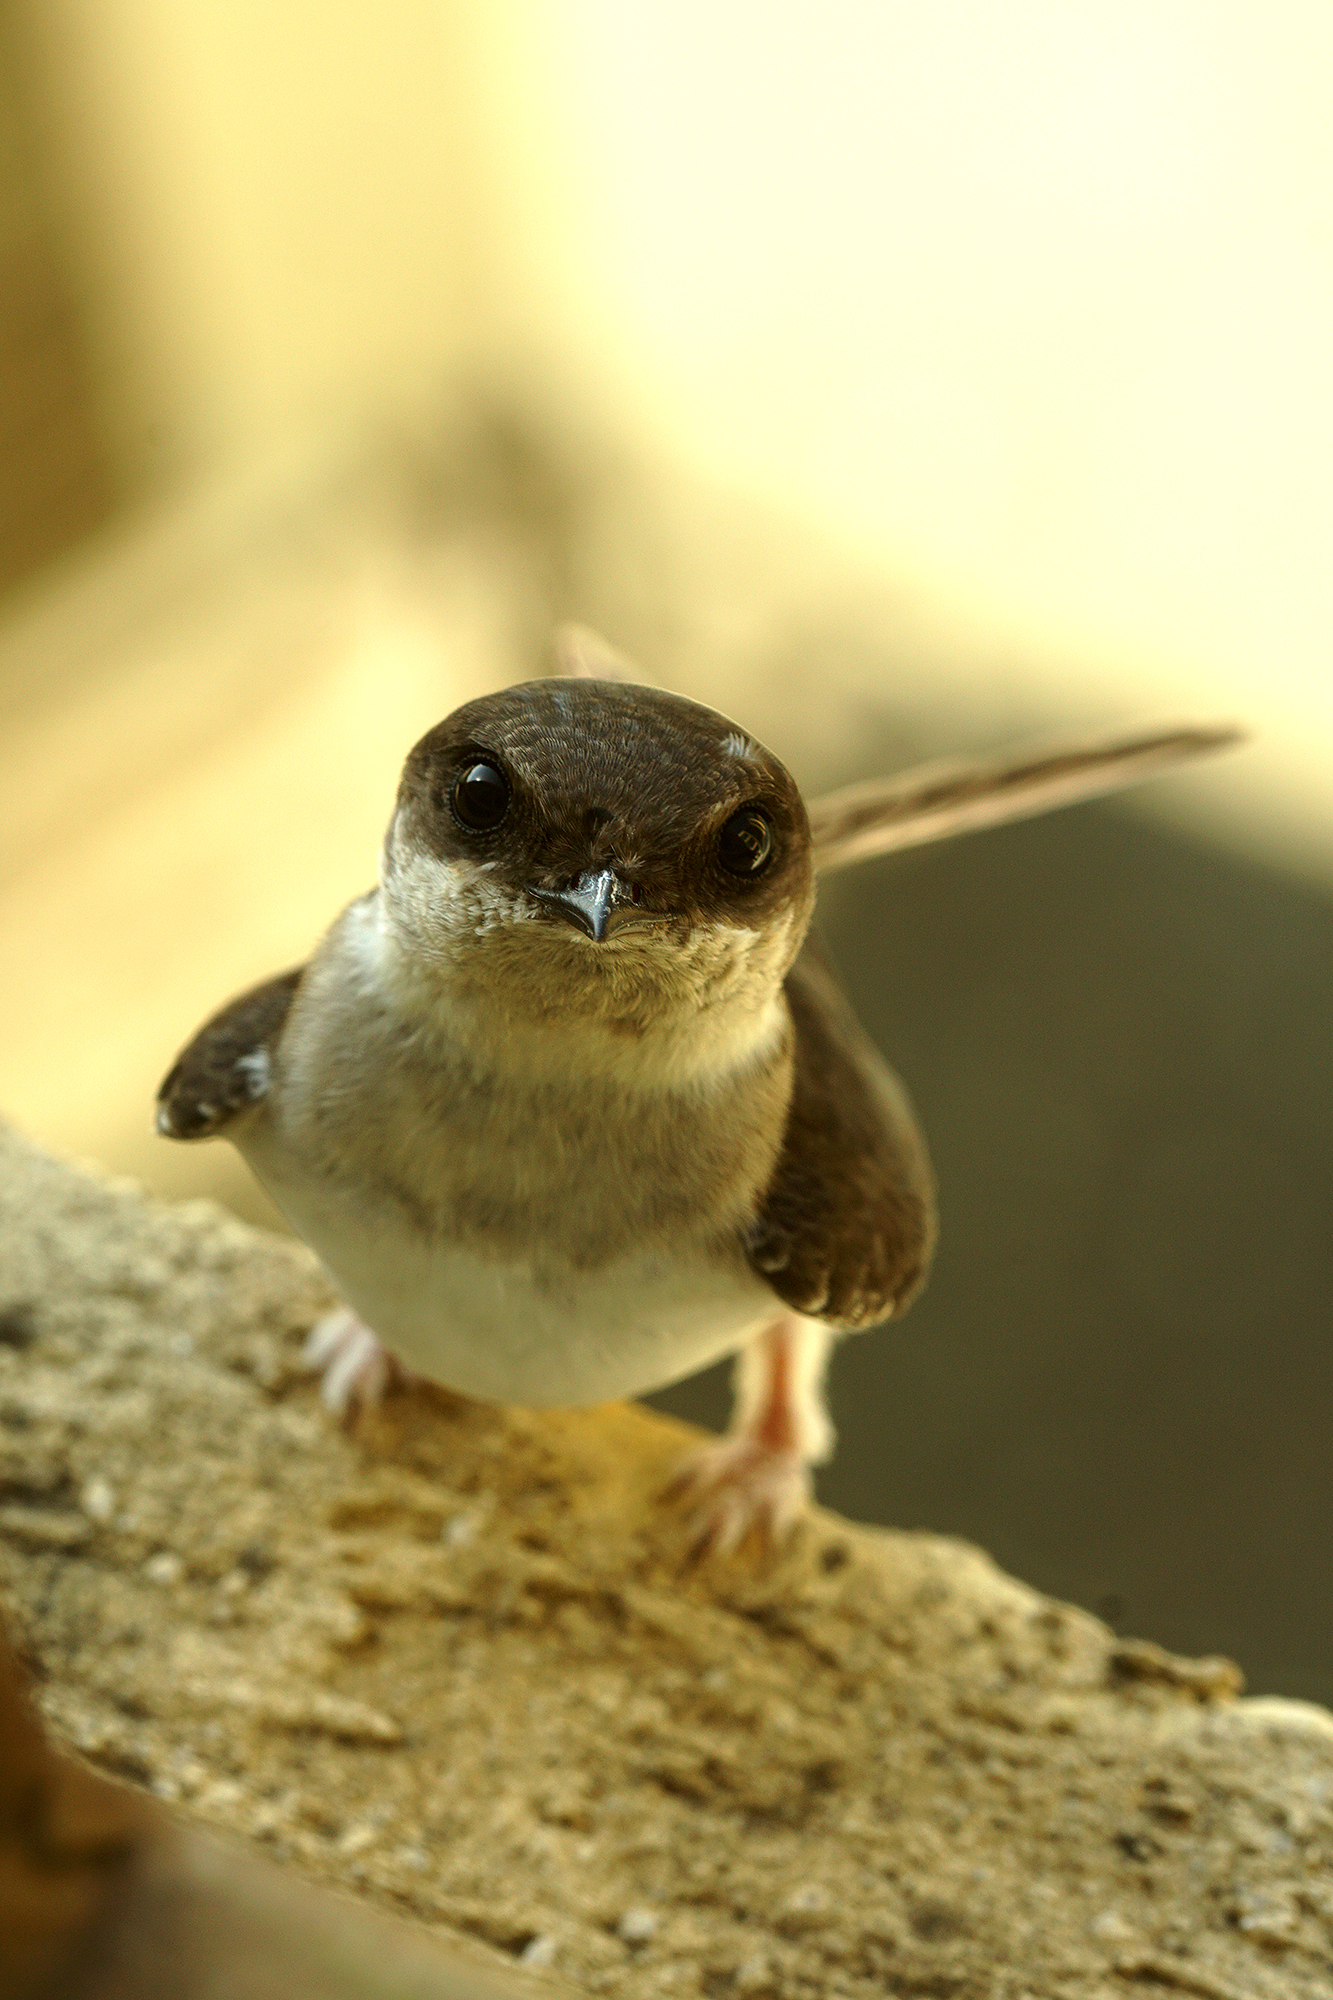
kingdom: Animalia
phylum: Chordata
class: Aves
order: Passeriformes
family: Hirundinidae
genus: Delichon
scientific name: Delichon urbicum
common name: Common house martin
